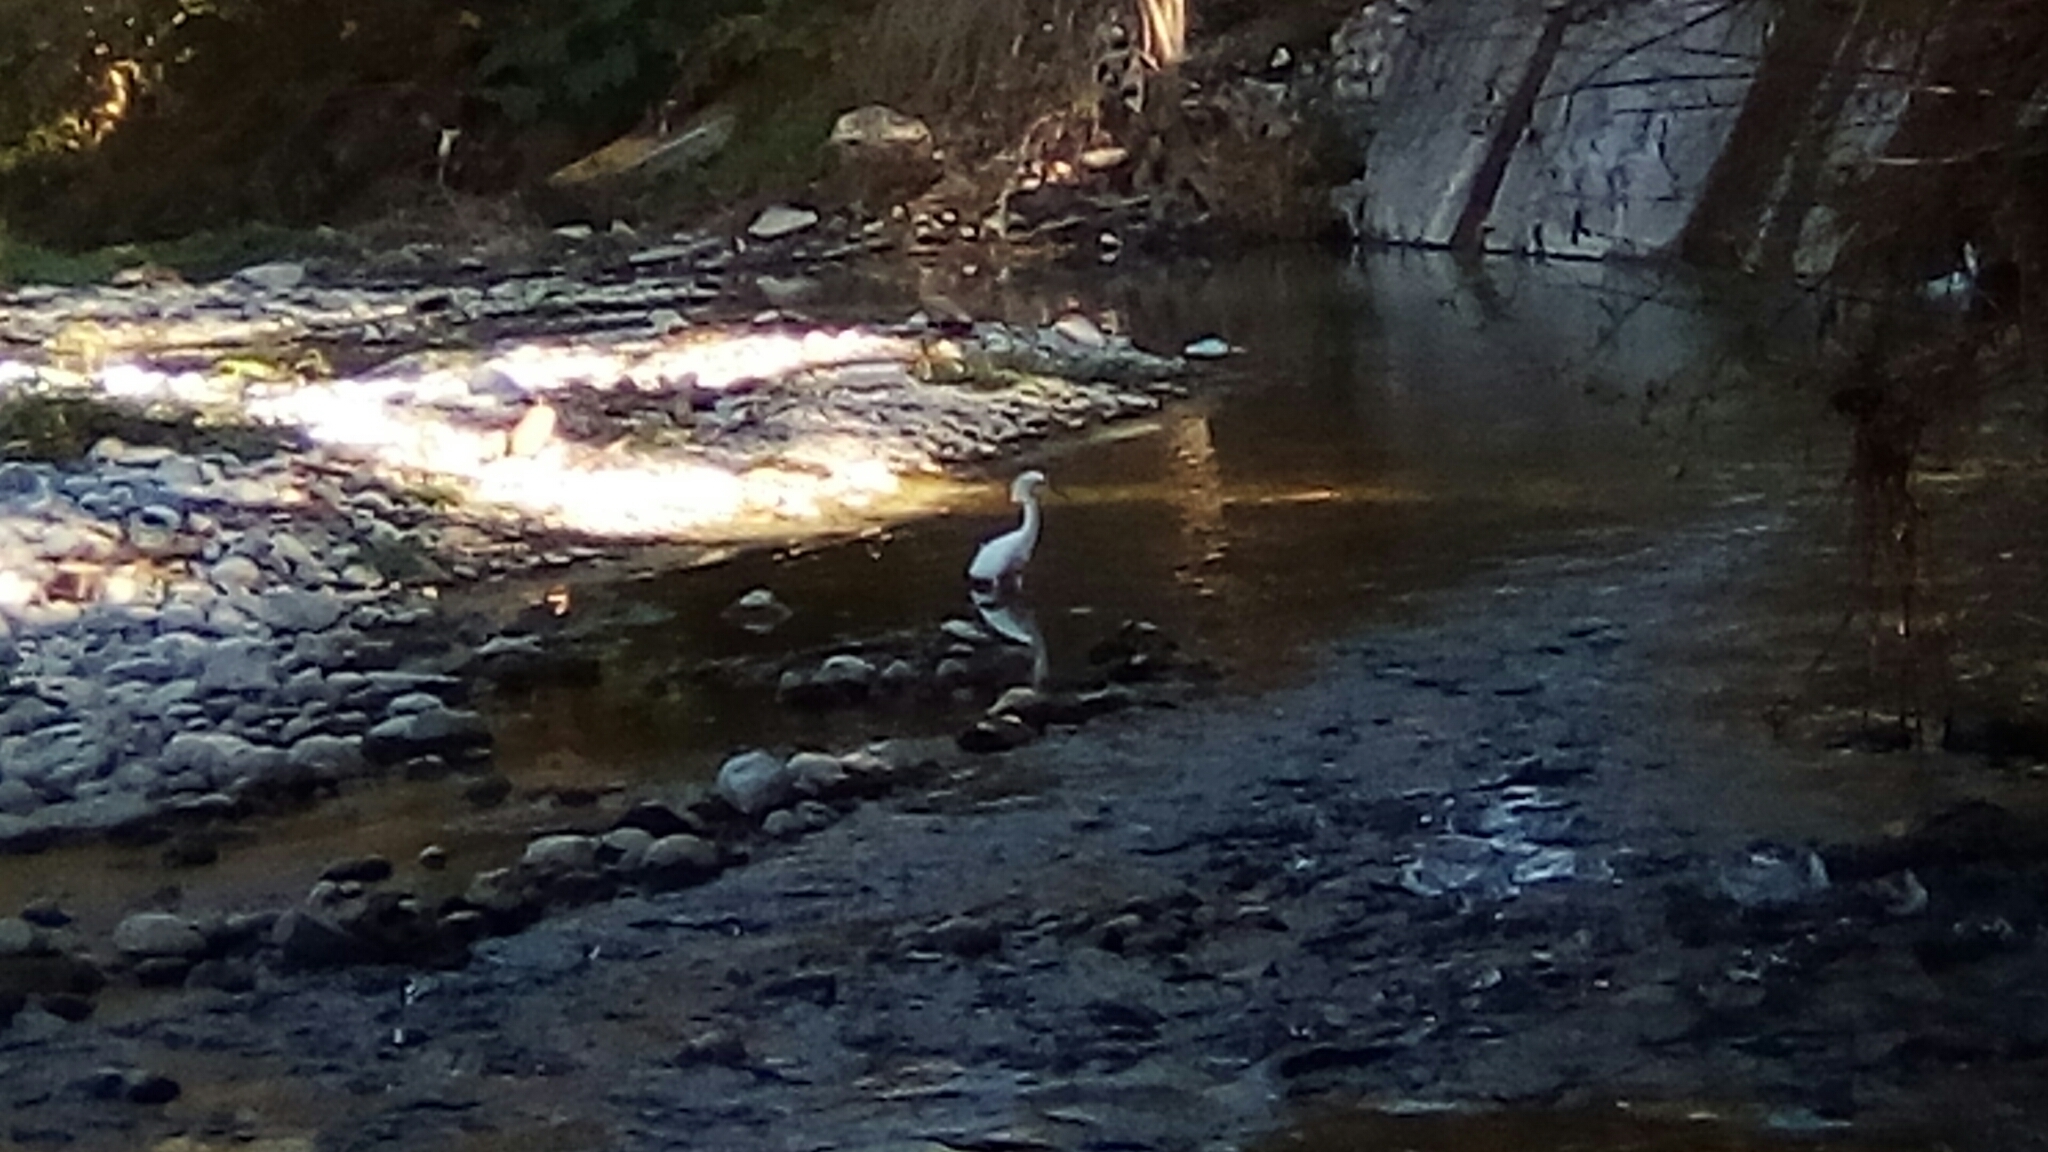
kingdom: Animalia
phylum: Chordata
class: Aves
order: Pelecaniformes
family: Ardeidae
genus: Egretta
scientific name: Egretta thula
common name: Snowy egret
